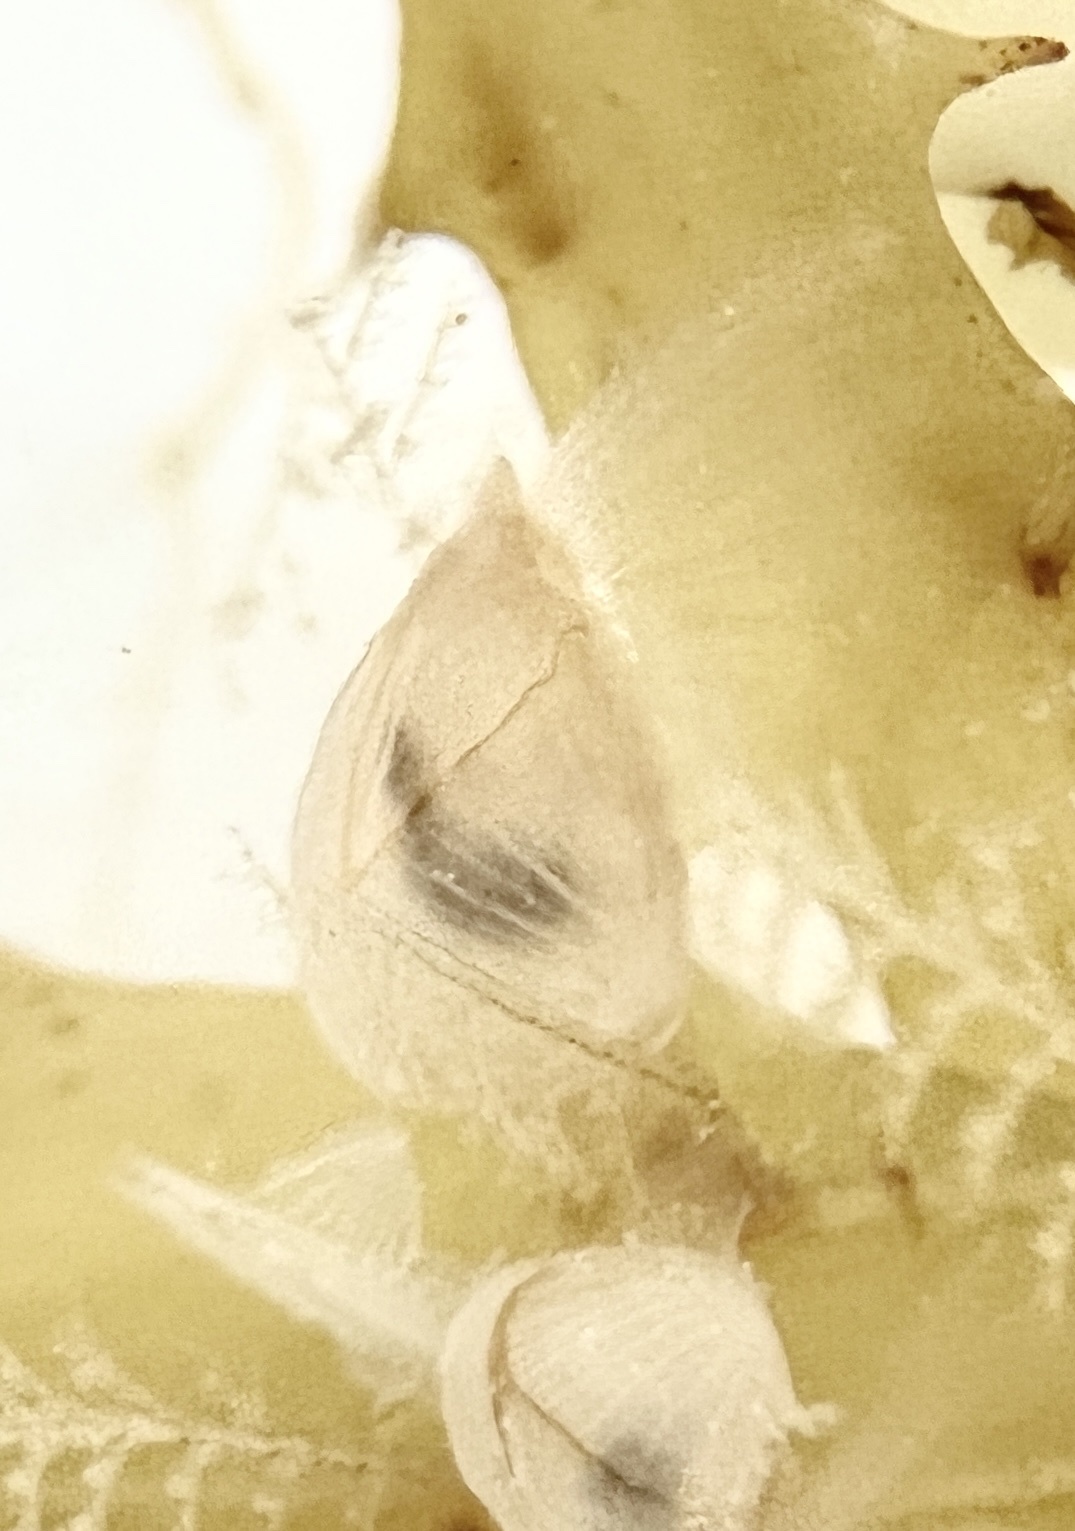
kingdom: Animalia
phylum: Arthropoda
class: Maxillopoda
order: Pedunculata
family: Lepadidae
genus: Lepas
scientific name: Lepas pectinata
